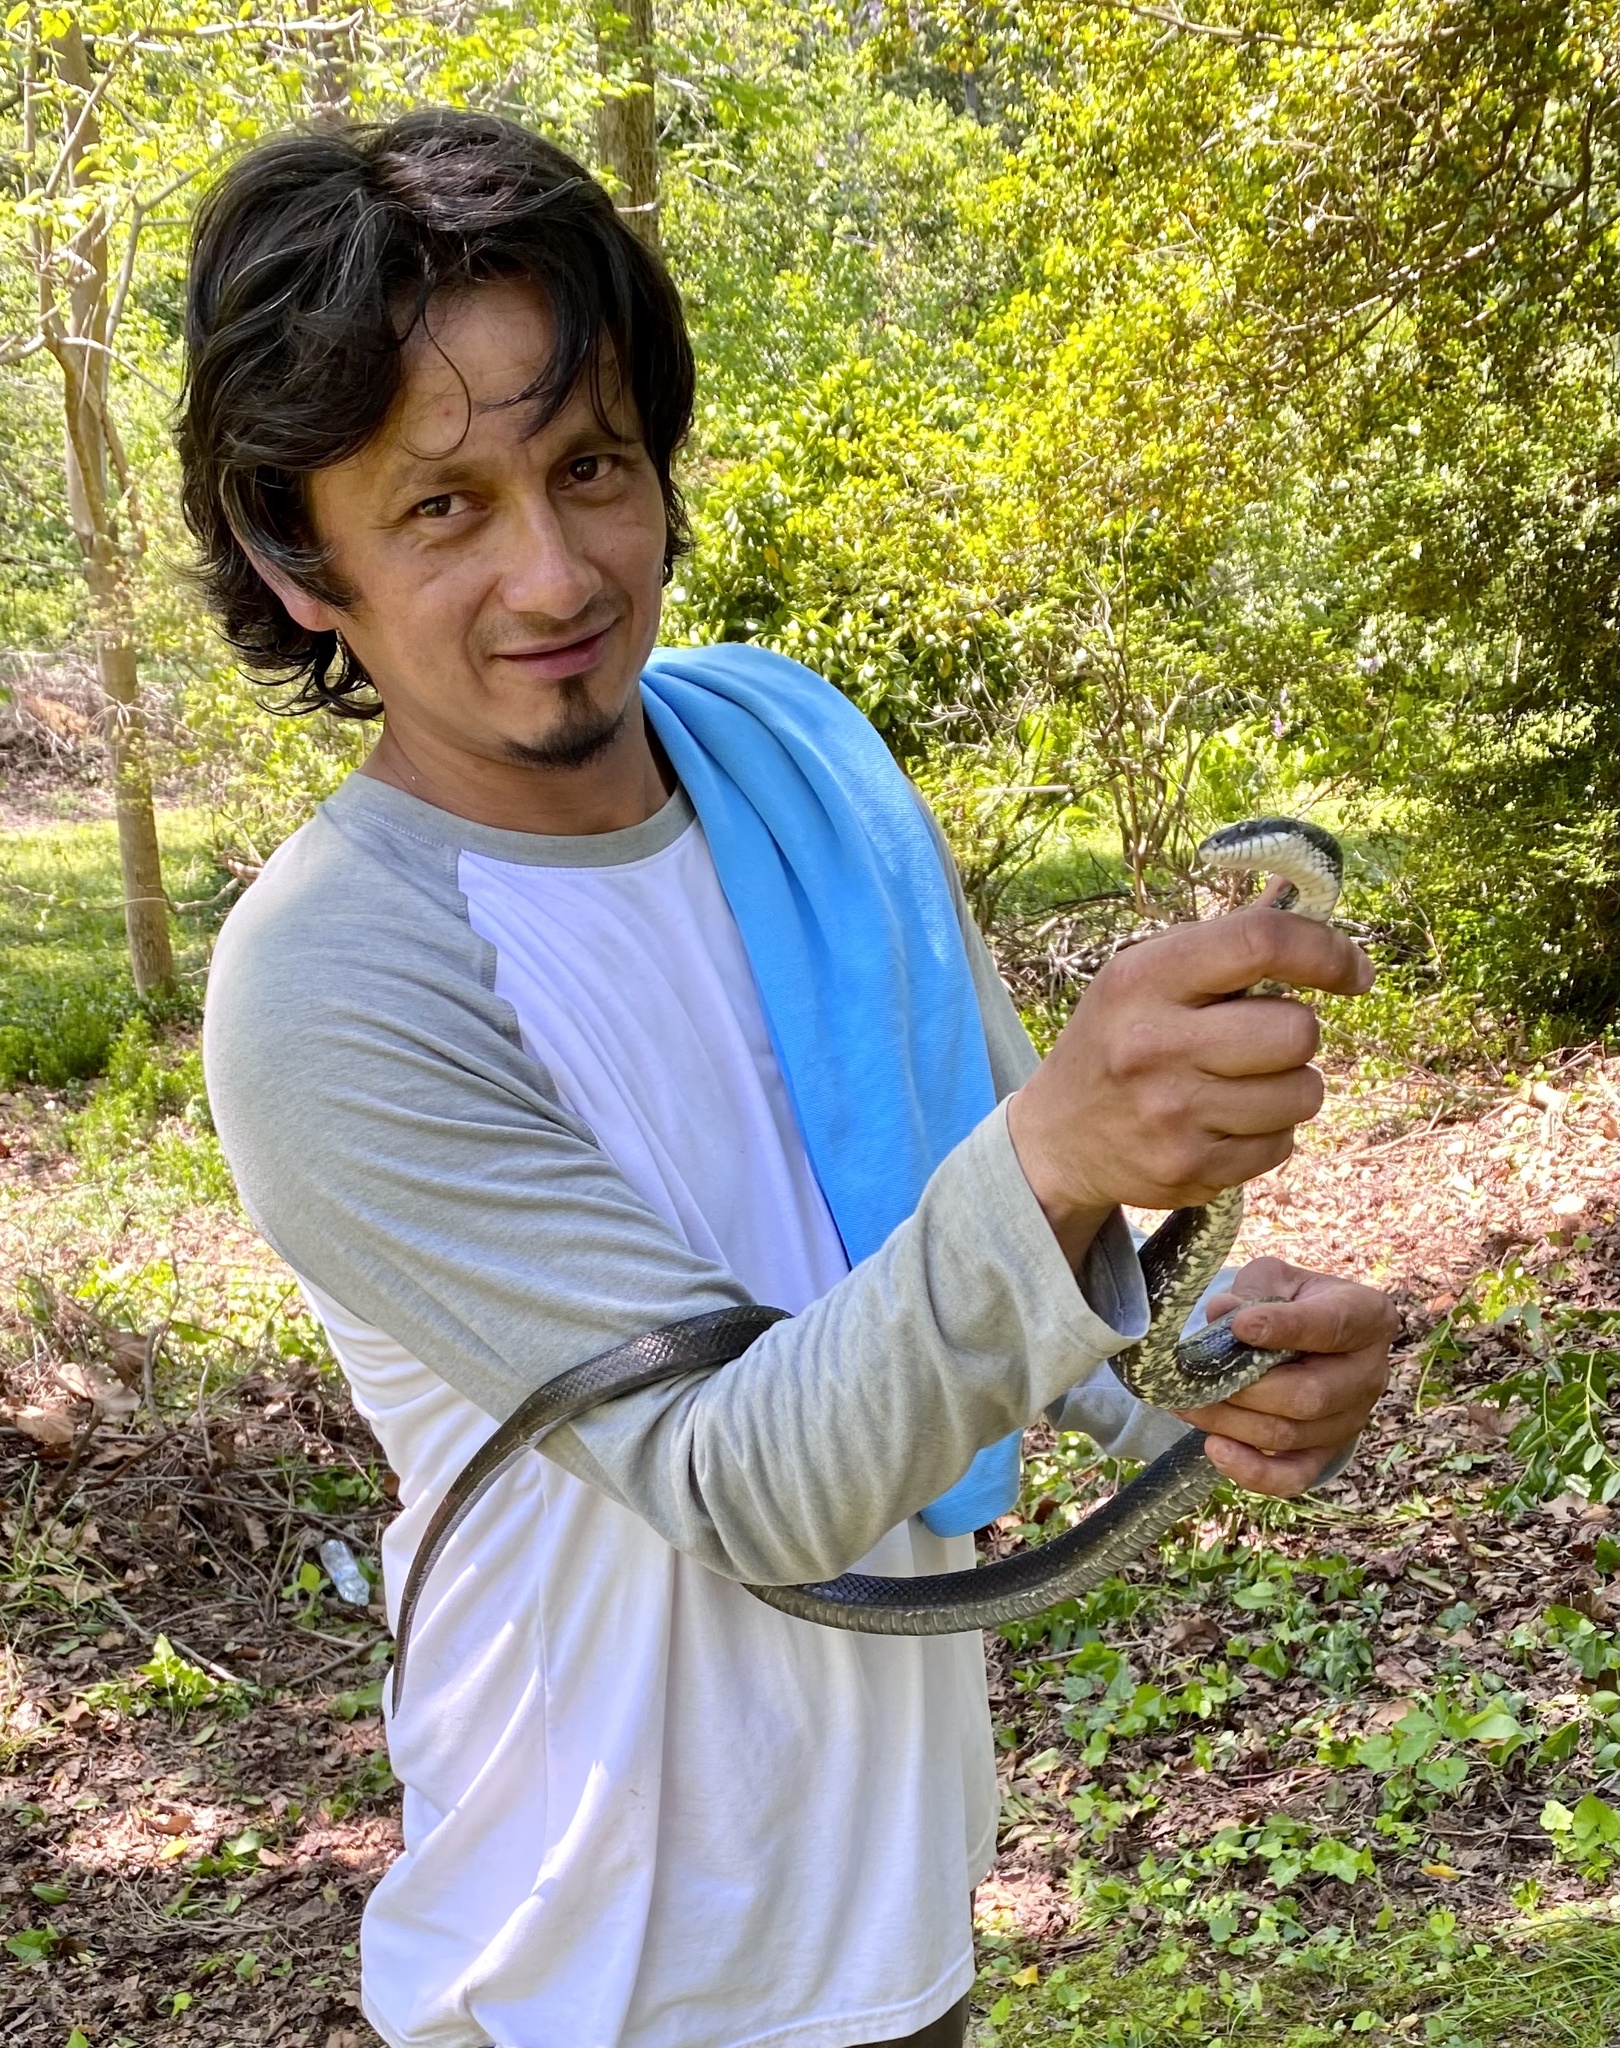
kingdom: Animalia
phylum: Chordata
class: Squamata
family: Colubridae
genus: Pantherophis
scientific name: Pantherophis alleghaniensis
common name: Eastern rat snake
